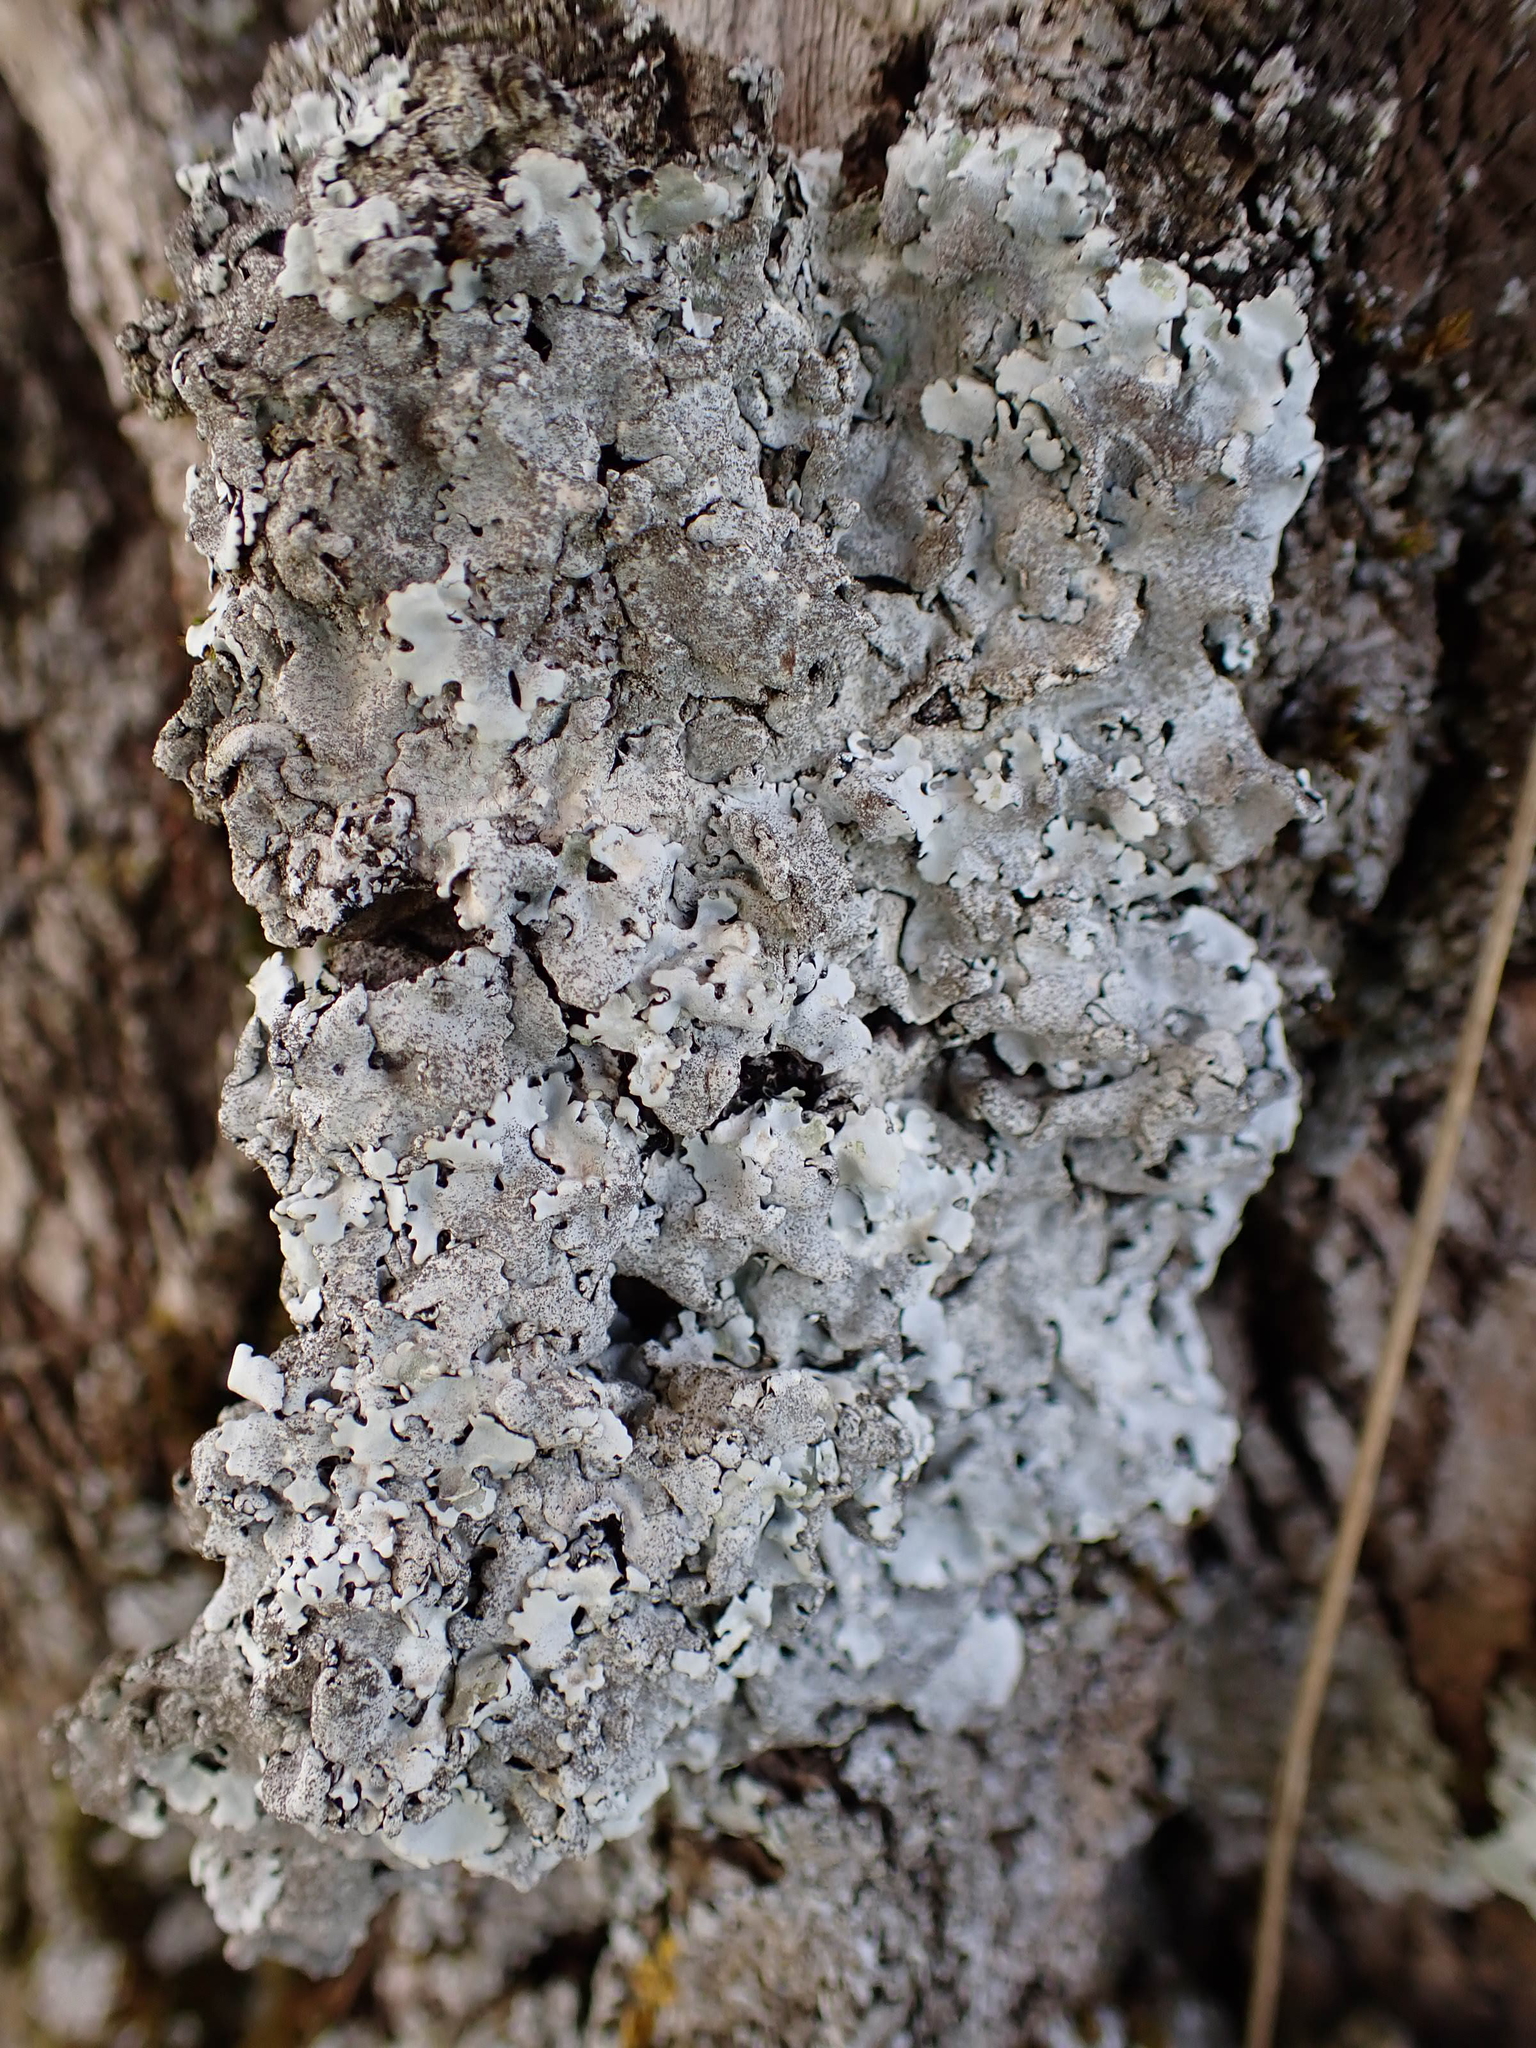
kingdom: Fungi
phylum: Ascomycota
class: Lecanoromycetes
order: Lecanorales
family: Parmeliaceae
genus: Parmelina
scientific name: Parmelina tiliacea
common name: Linden shield lichen
